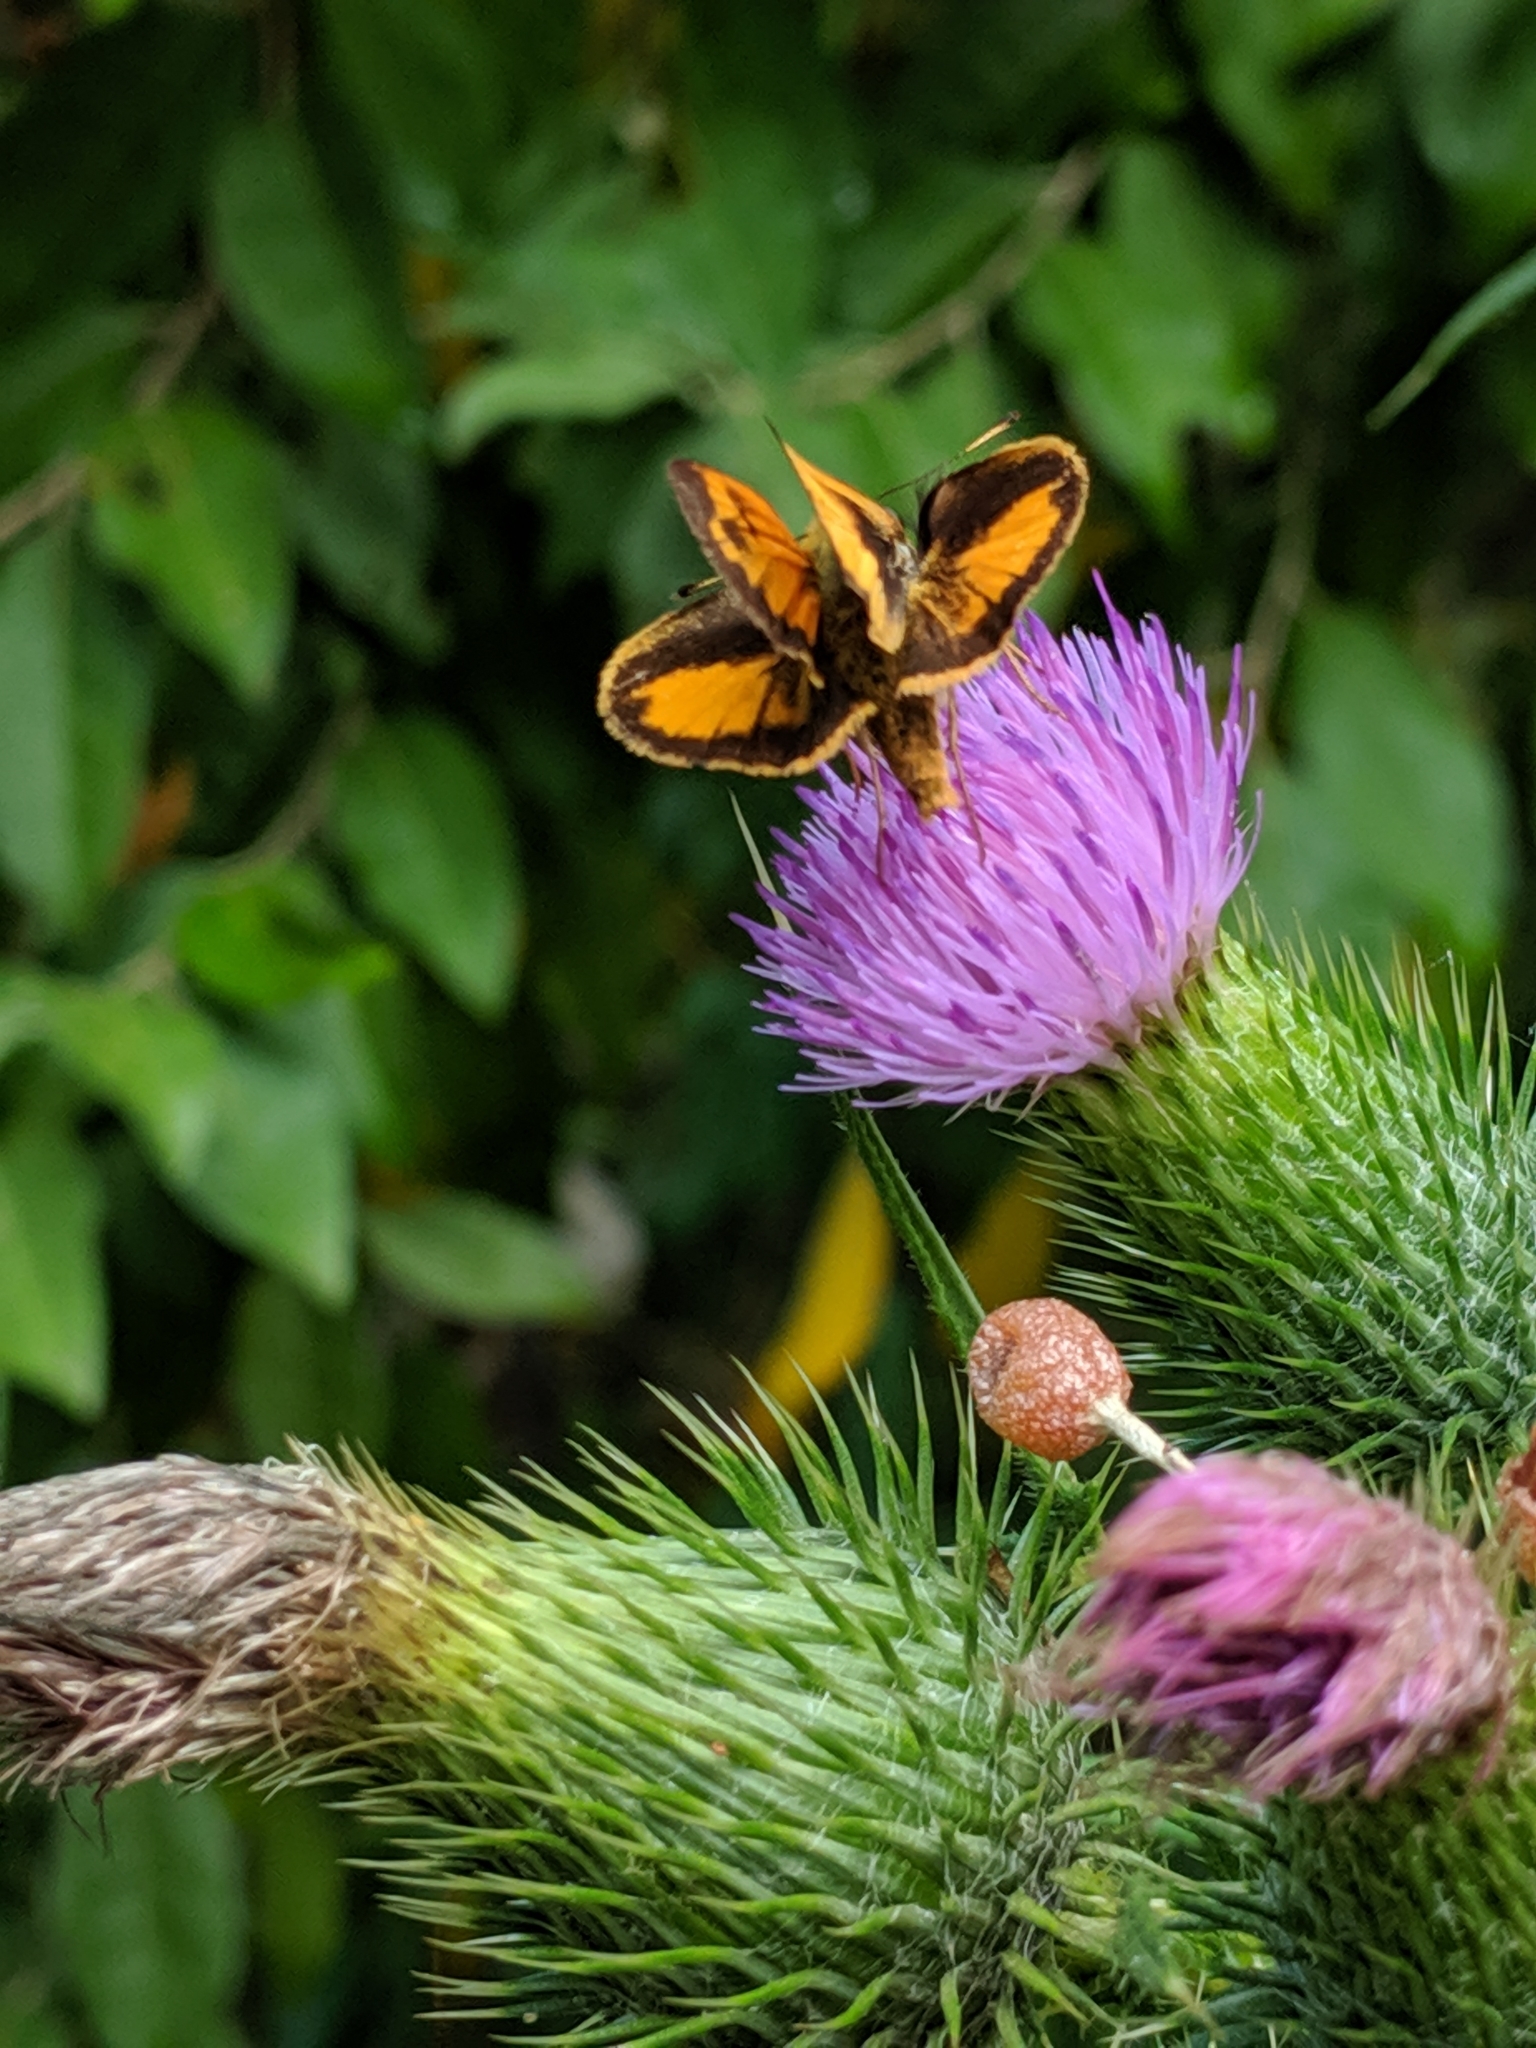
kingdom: Animalia
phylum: Arthropoda
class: Insecta
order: Lepidoptera
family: Hesperiidae
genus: Lon
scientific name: Lon zabulon
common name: Zabulon skipper
